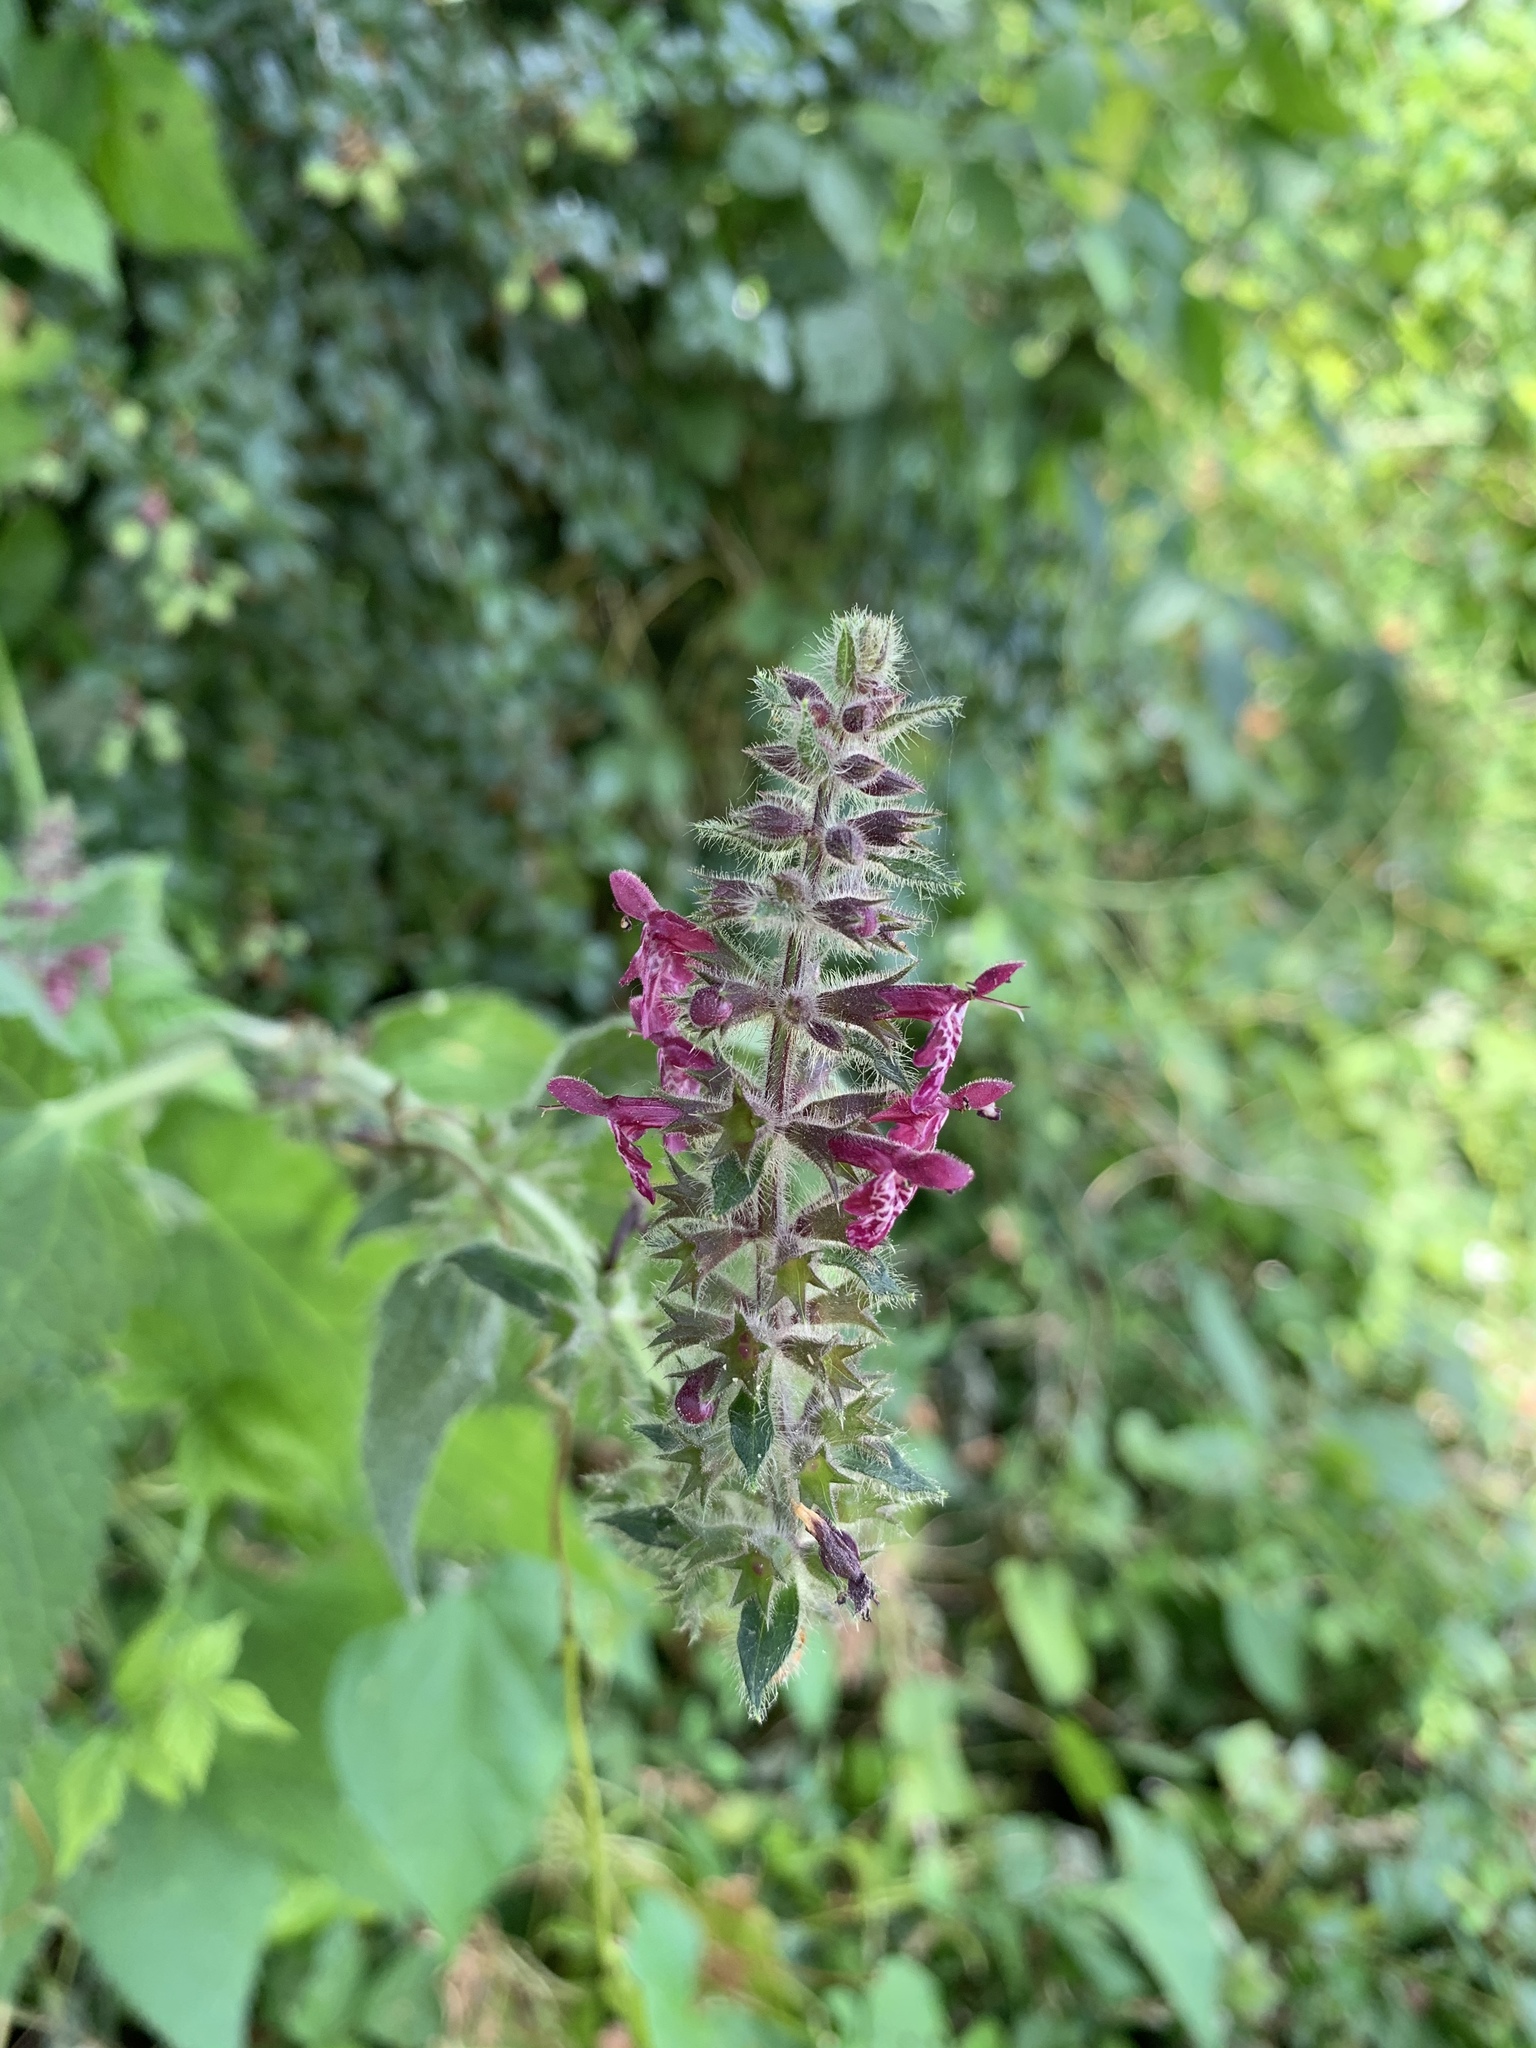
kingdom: Plantae
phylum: Tracheophyta
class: Magnoliopsida
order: Lamiales
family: Lamiaceae
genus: Stachys
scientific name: Stachys sylvatica
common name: Hedge woundwort
